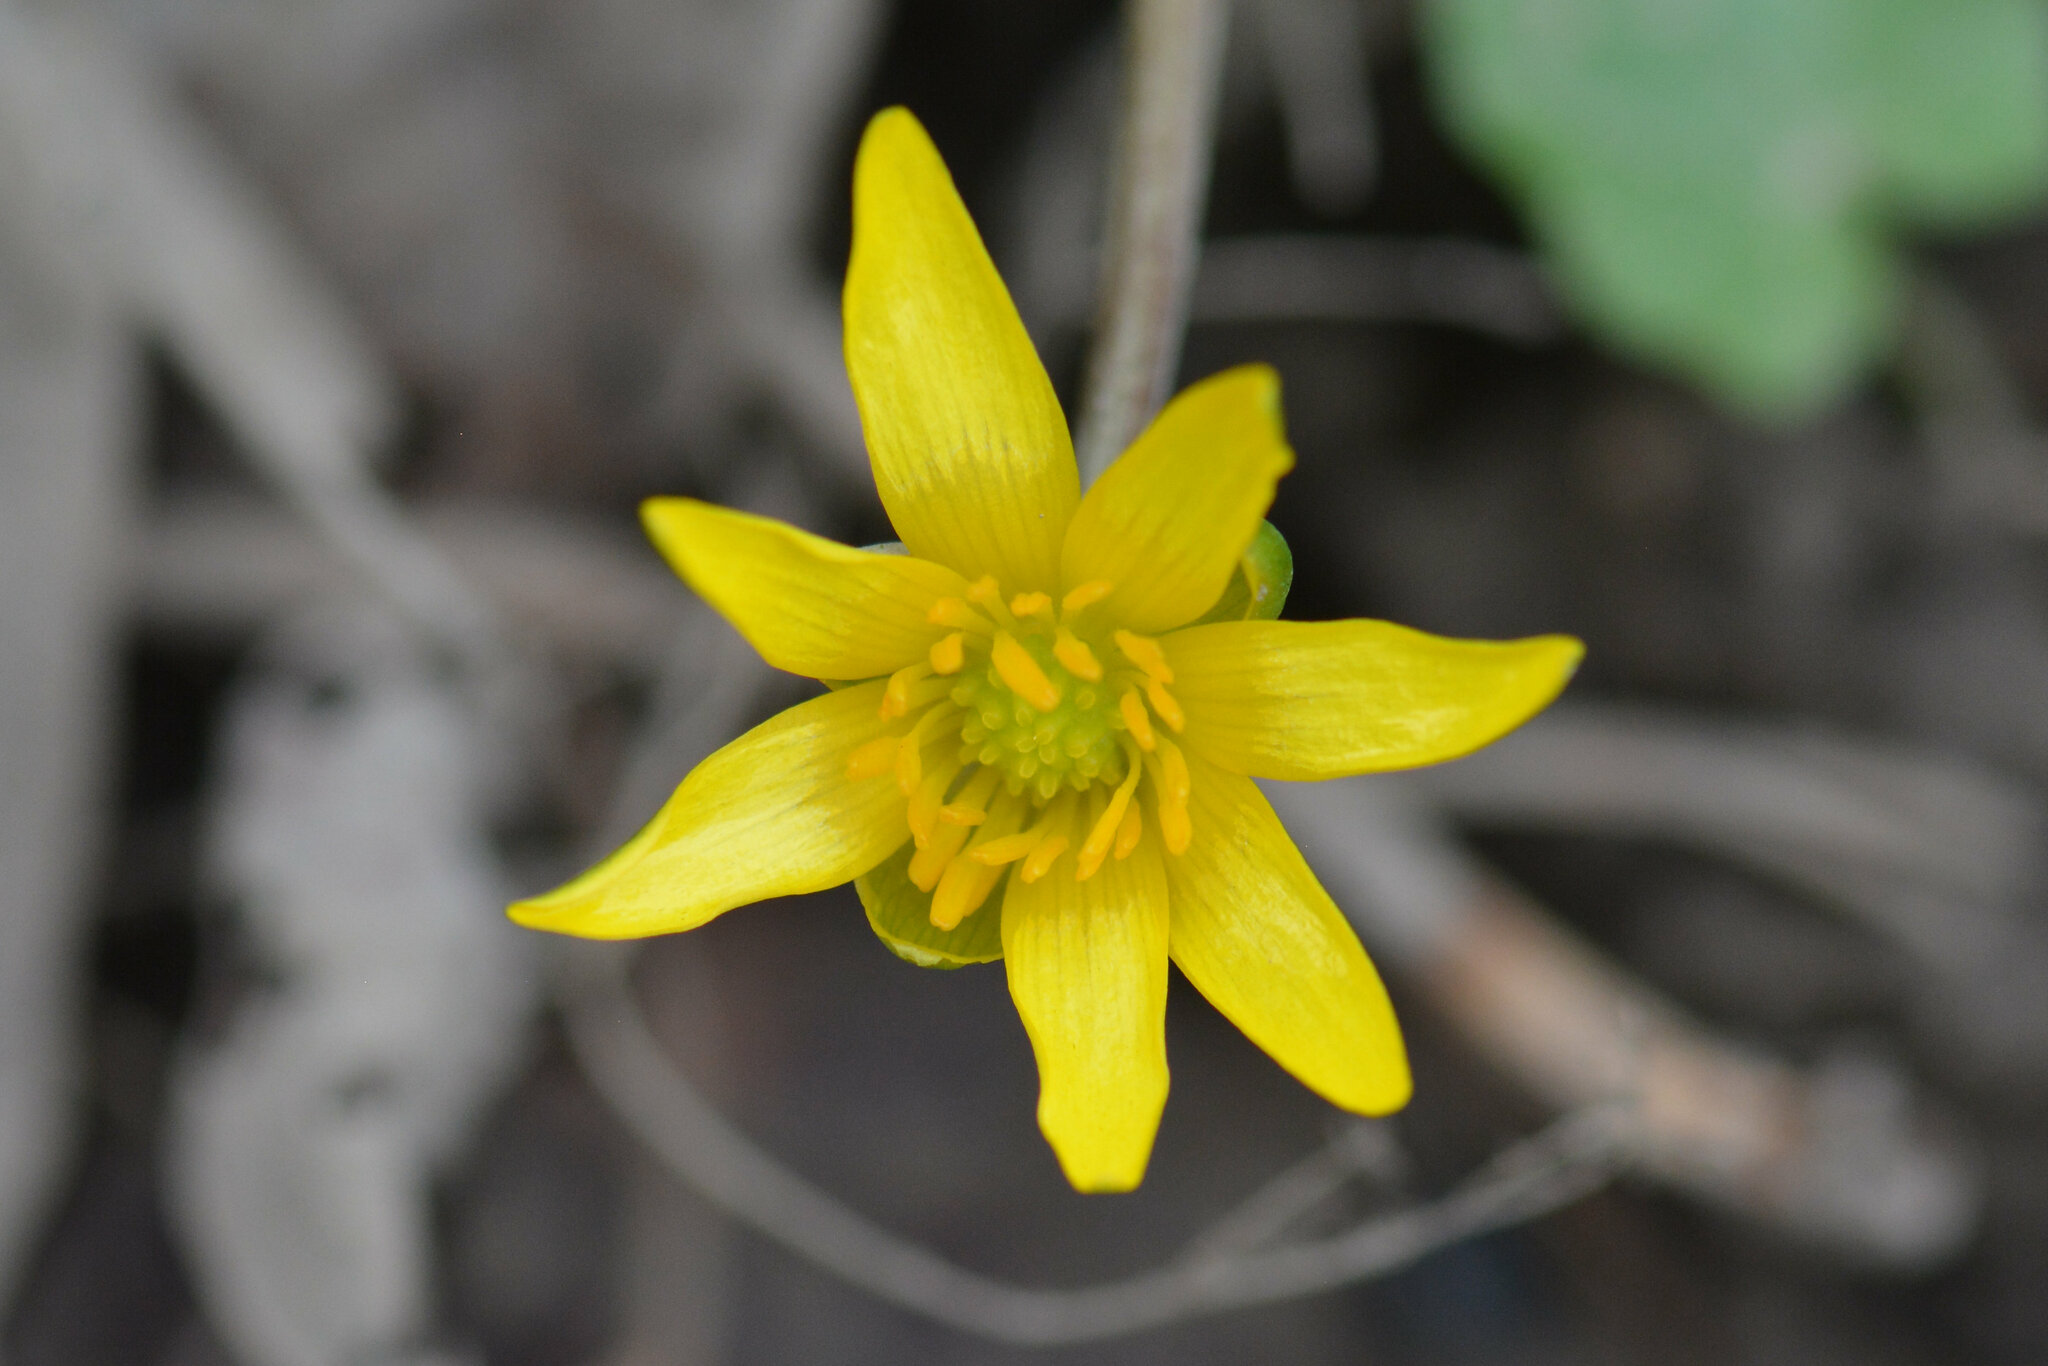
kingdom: Plantae
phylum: Tracheophyta
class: Magnoliopsida
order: Ranunculales
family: Ranunculaceae
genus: Ficaria
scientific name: Ficaria verna
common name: Lesser celandine
